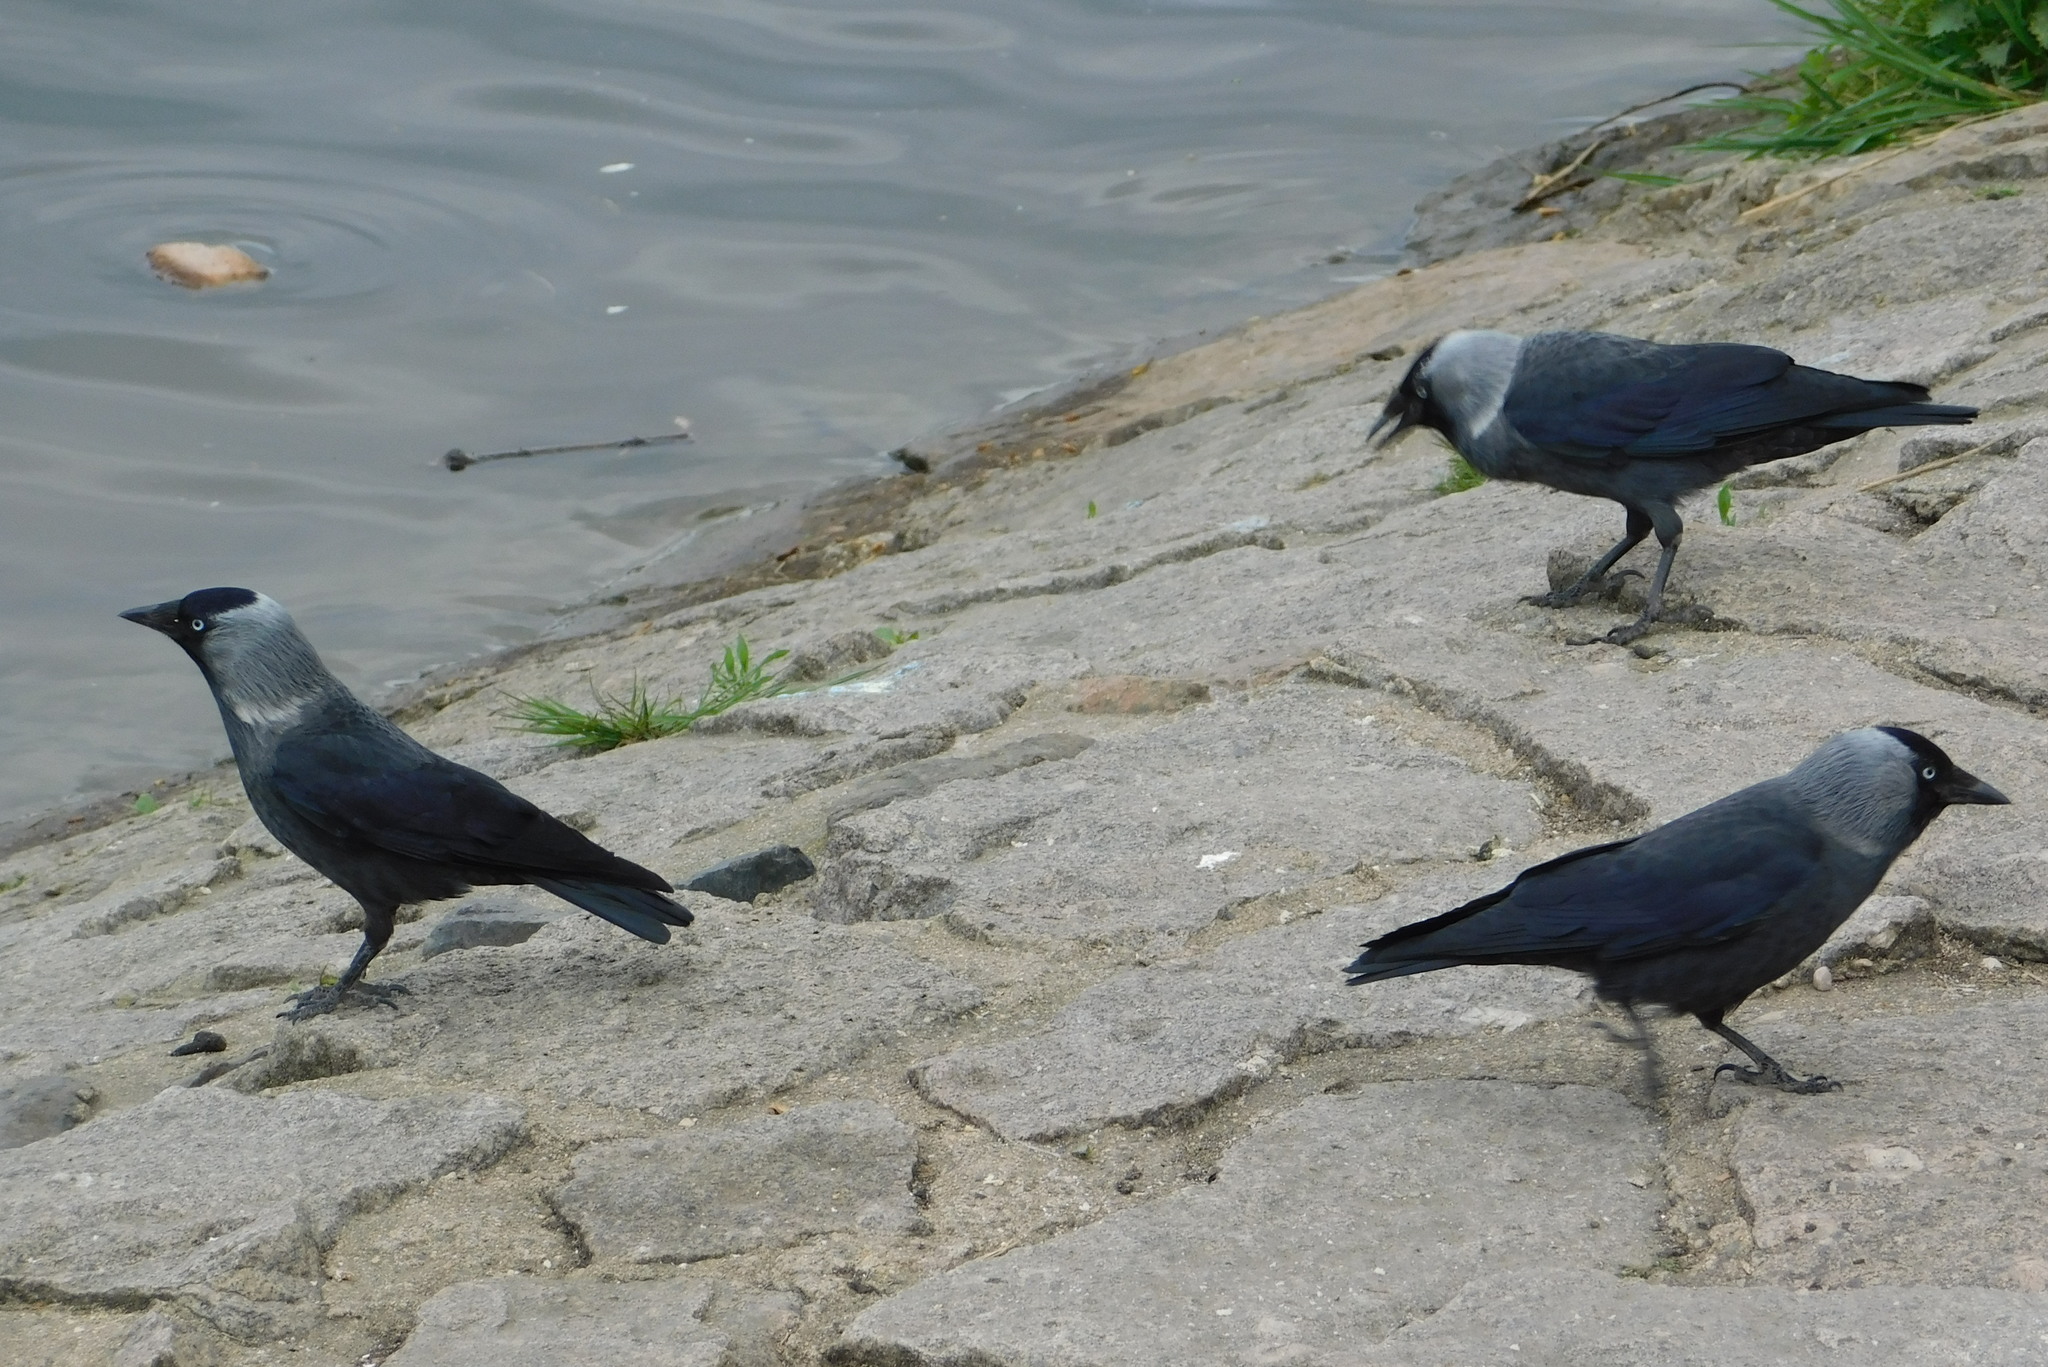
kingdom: Animalia
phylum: Chordata
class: Aves
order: Passeriformes
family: Corvidae
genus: Coloeus
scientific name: Coloeus monedula
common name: Western jackdaw
